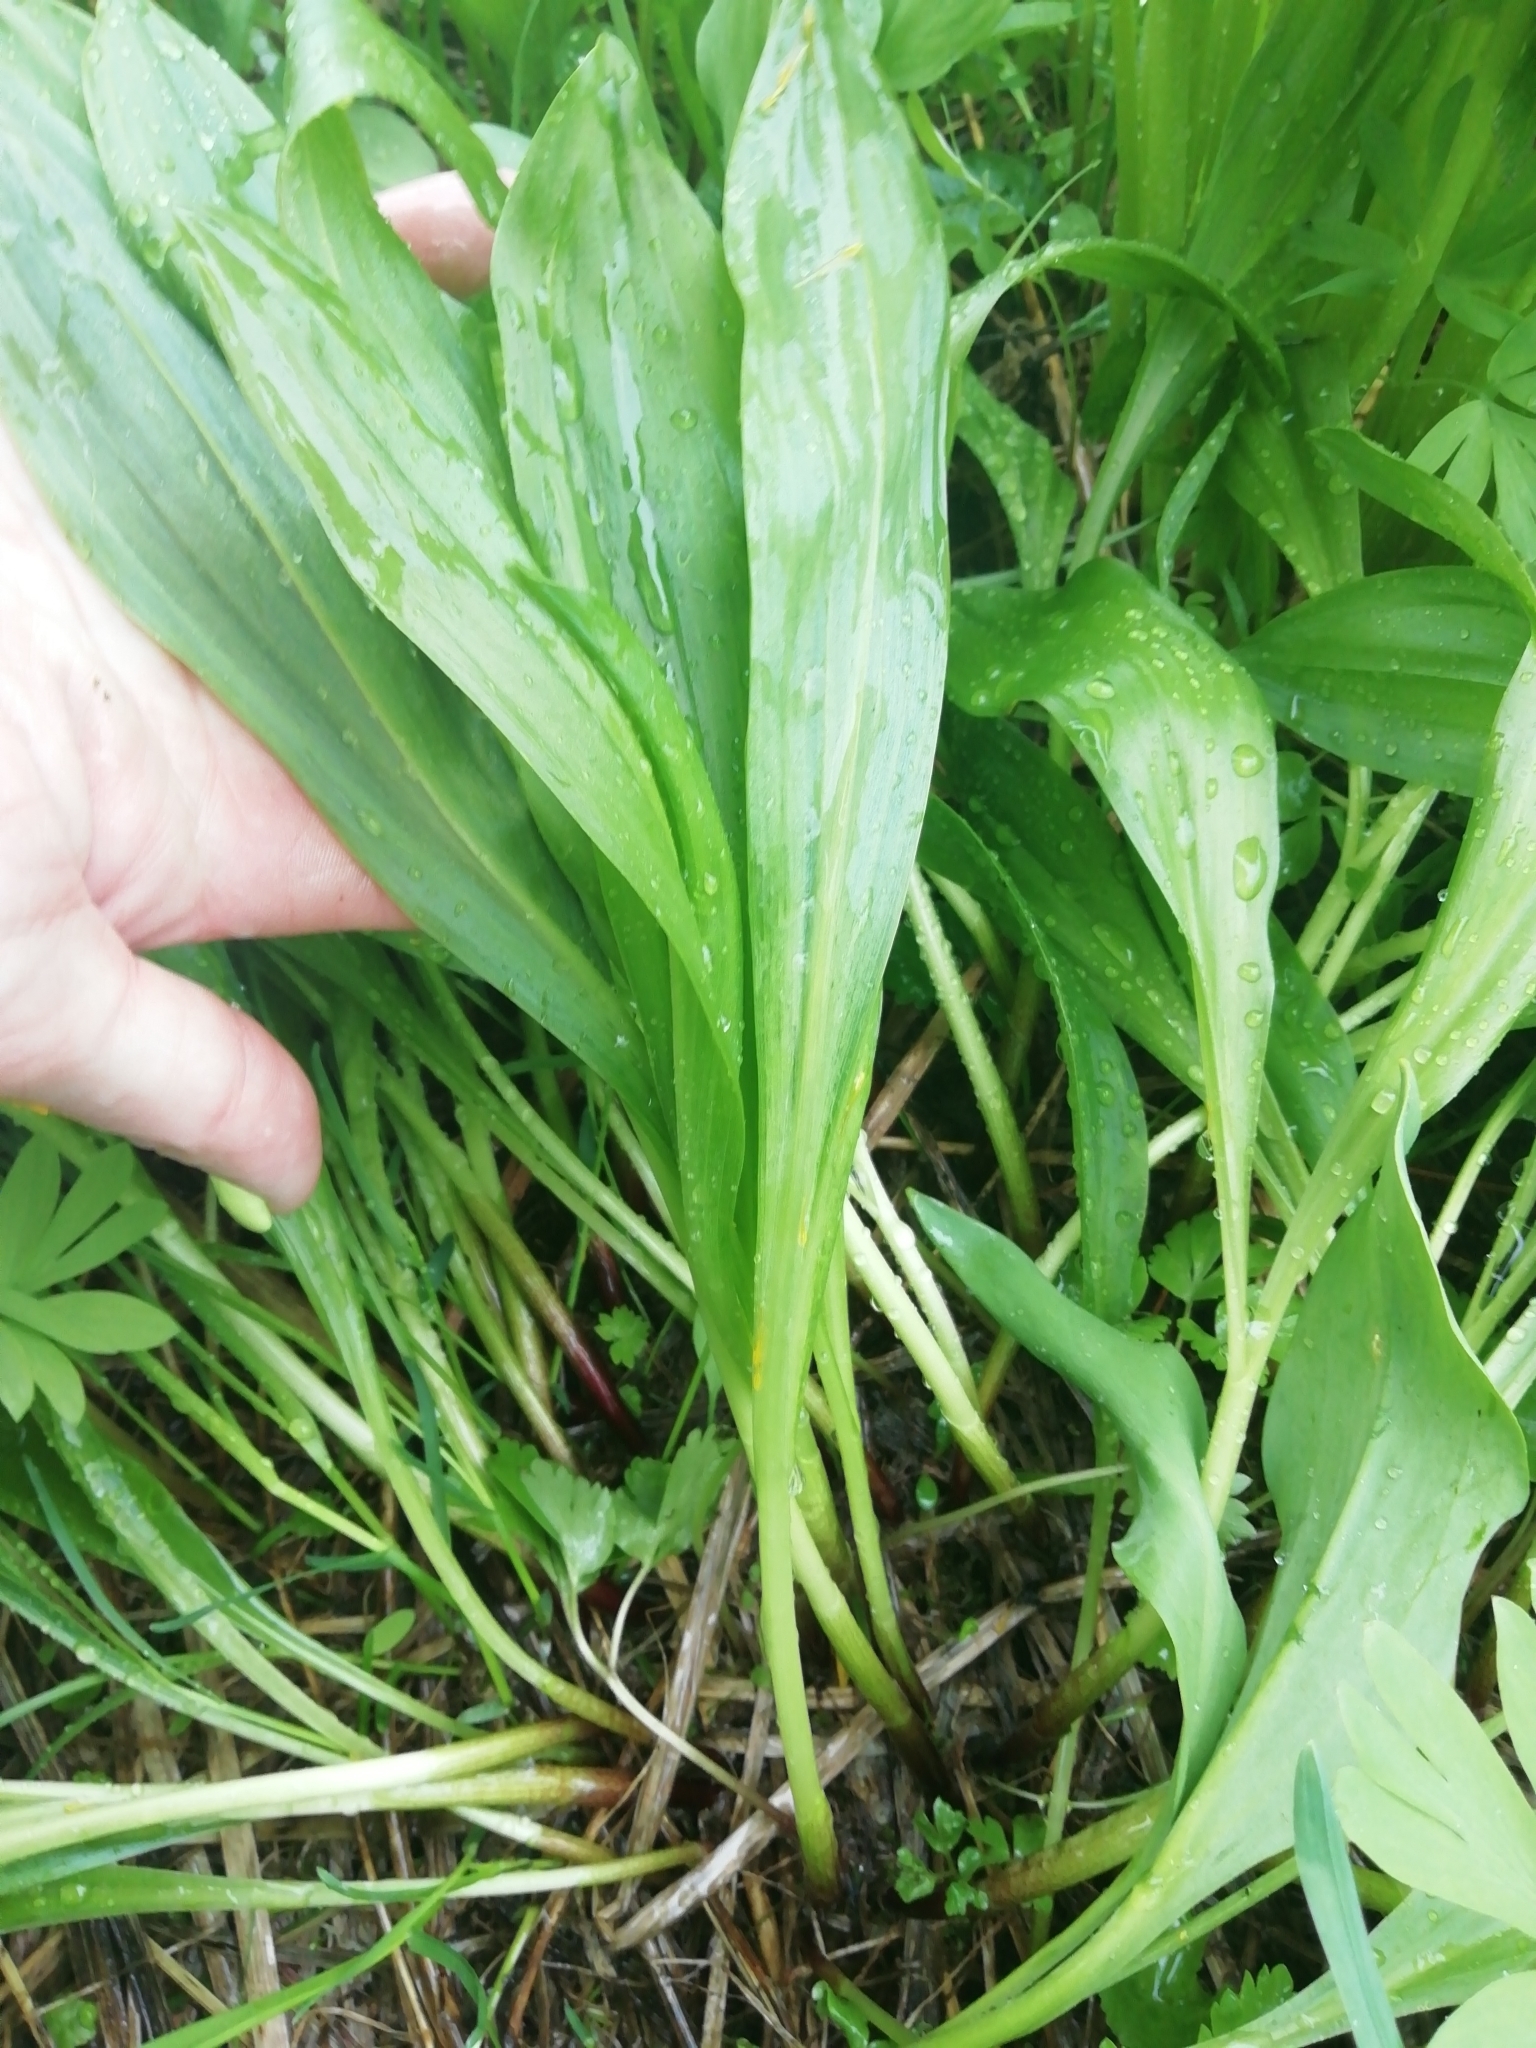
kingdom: Plantae
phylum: Tracheophyta
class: Liliopsida
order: Asparagales
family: Amaryllidaceae
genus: Allium
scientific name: Allium microdictyon
